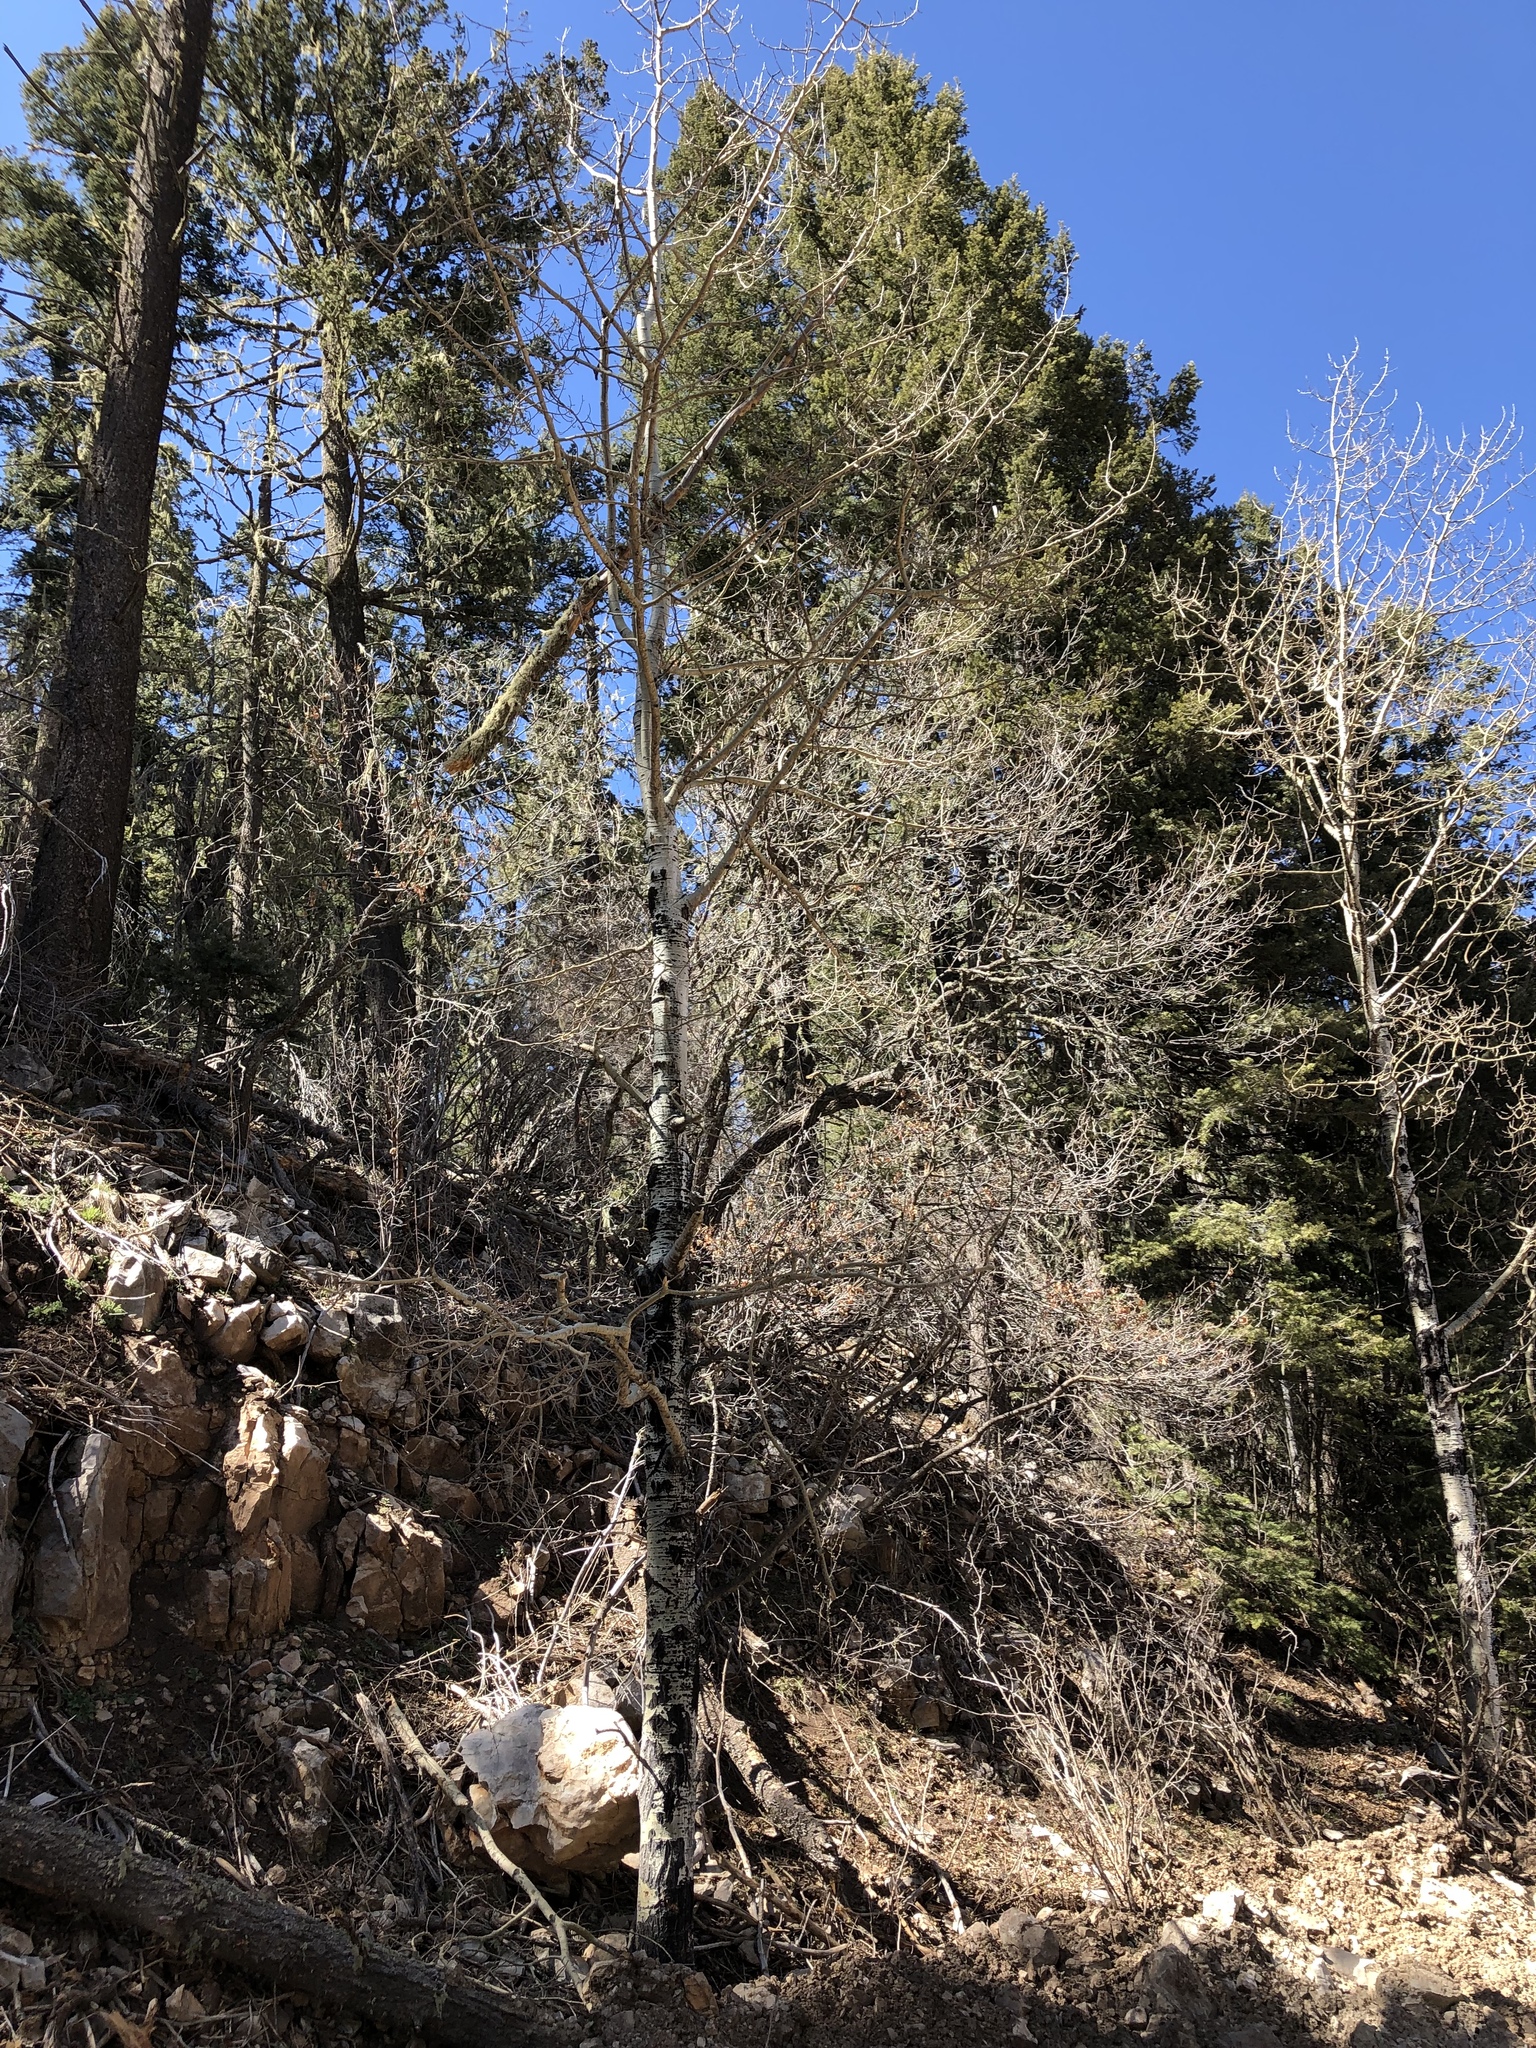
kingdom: Plantae
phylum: Tracheophyta
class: Magnoliopsida
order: Malpighiales
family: Salicaceae
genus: Populus
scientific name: Populus tremuloides
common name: Quaking aspen
